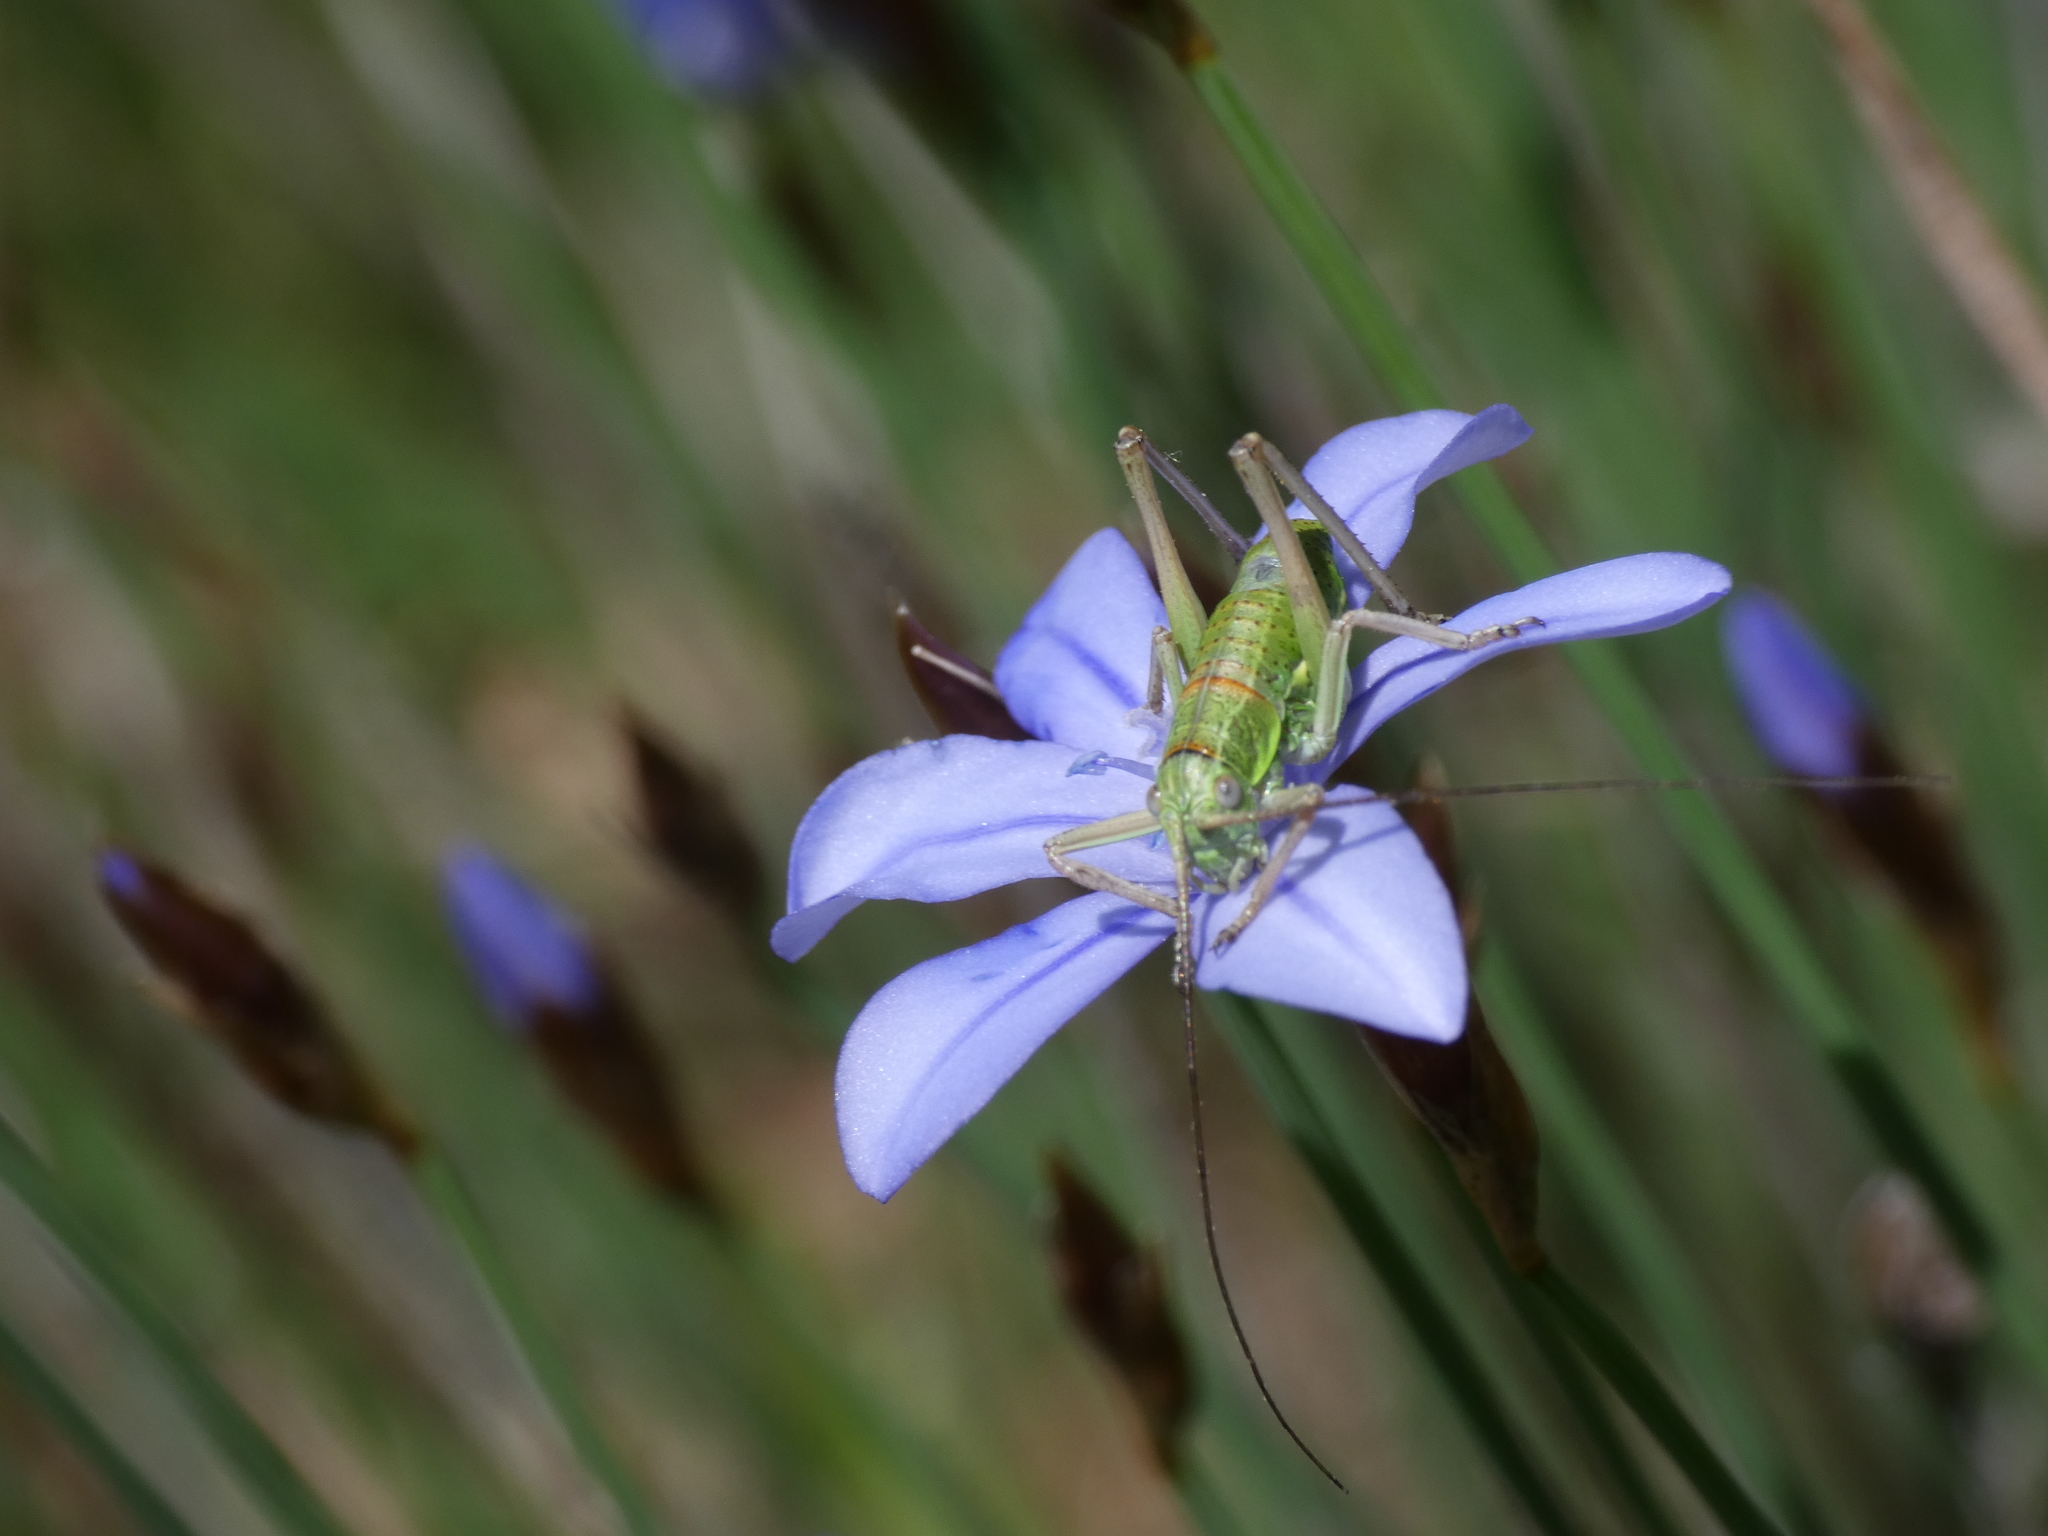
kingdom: Animalia
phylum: Arthropoda
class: Insecta
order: Orthoptera
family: Tettigoniidae
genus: Ephippiger
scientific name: Ephippiger diurnus
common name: Western saddle bush-cricket
